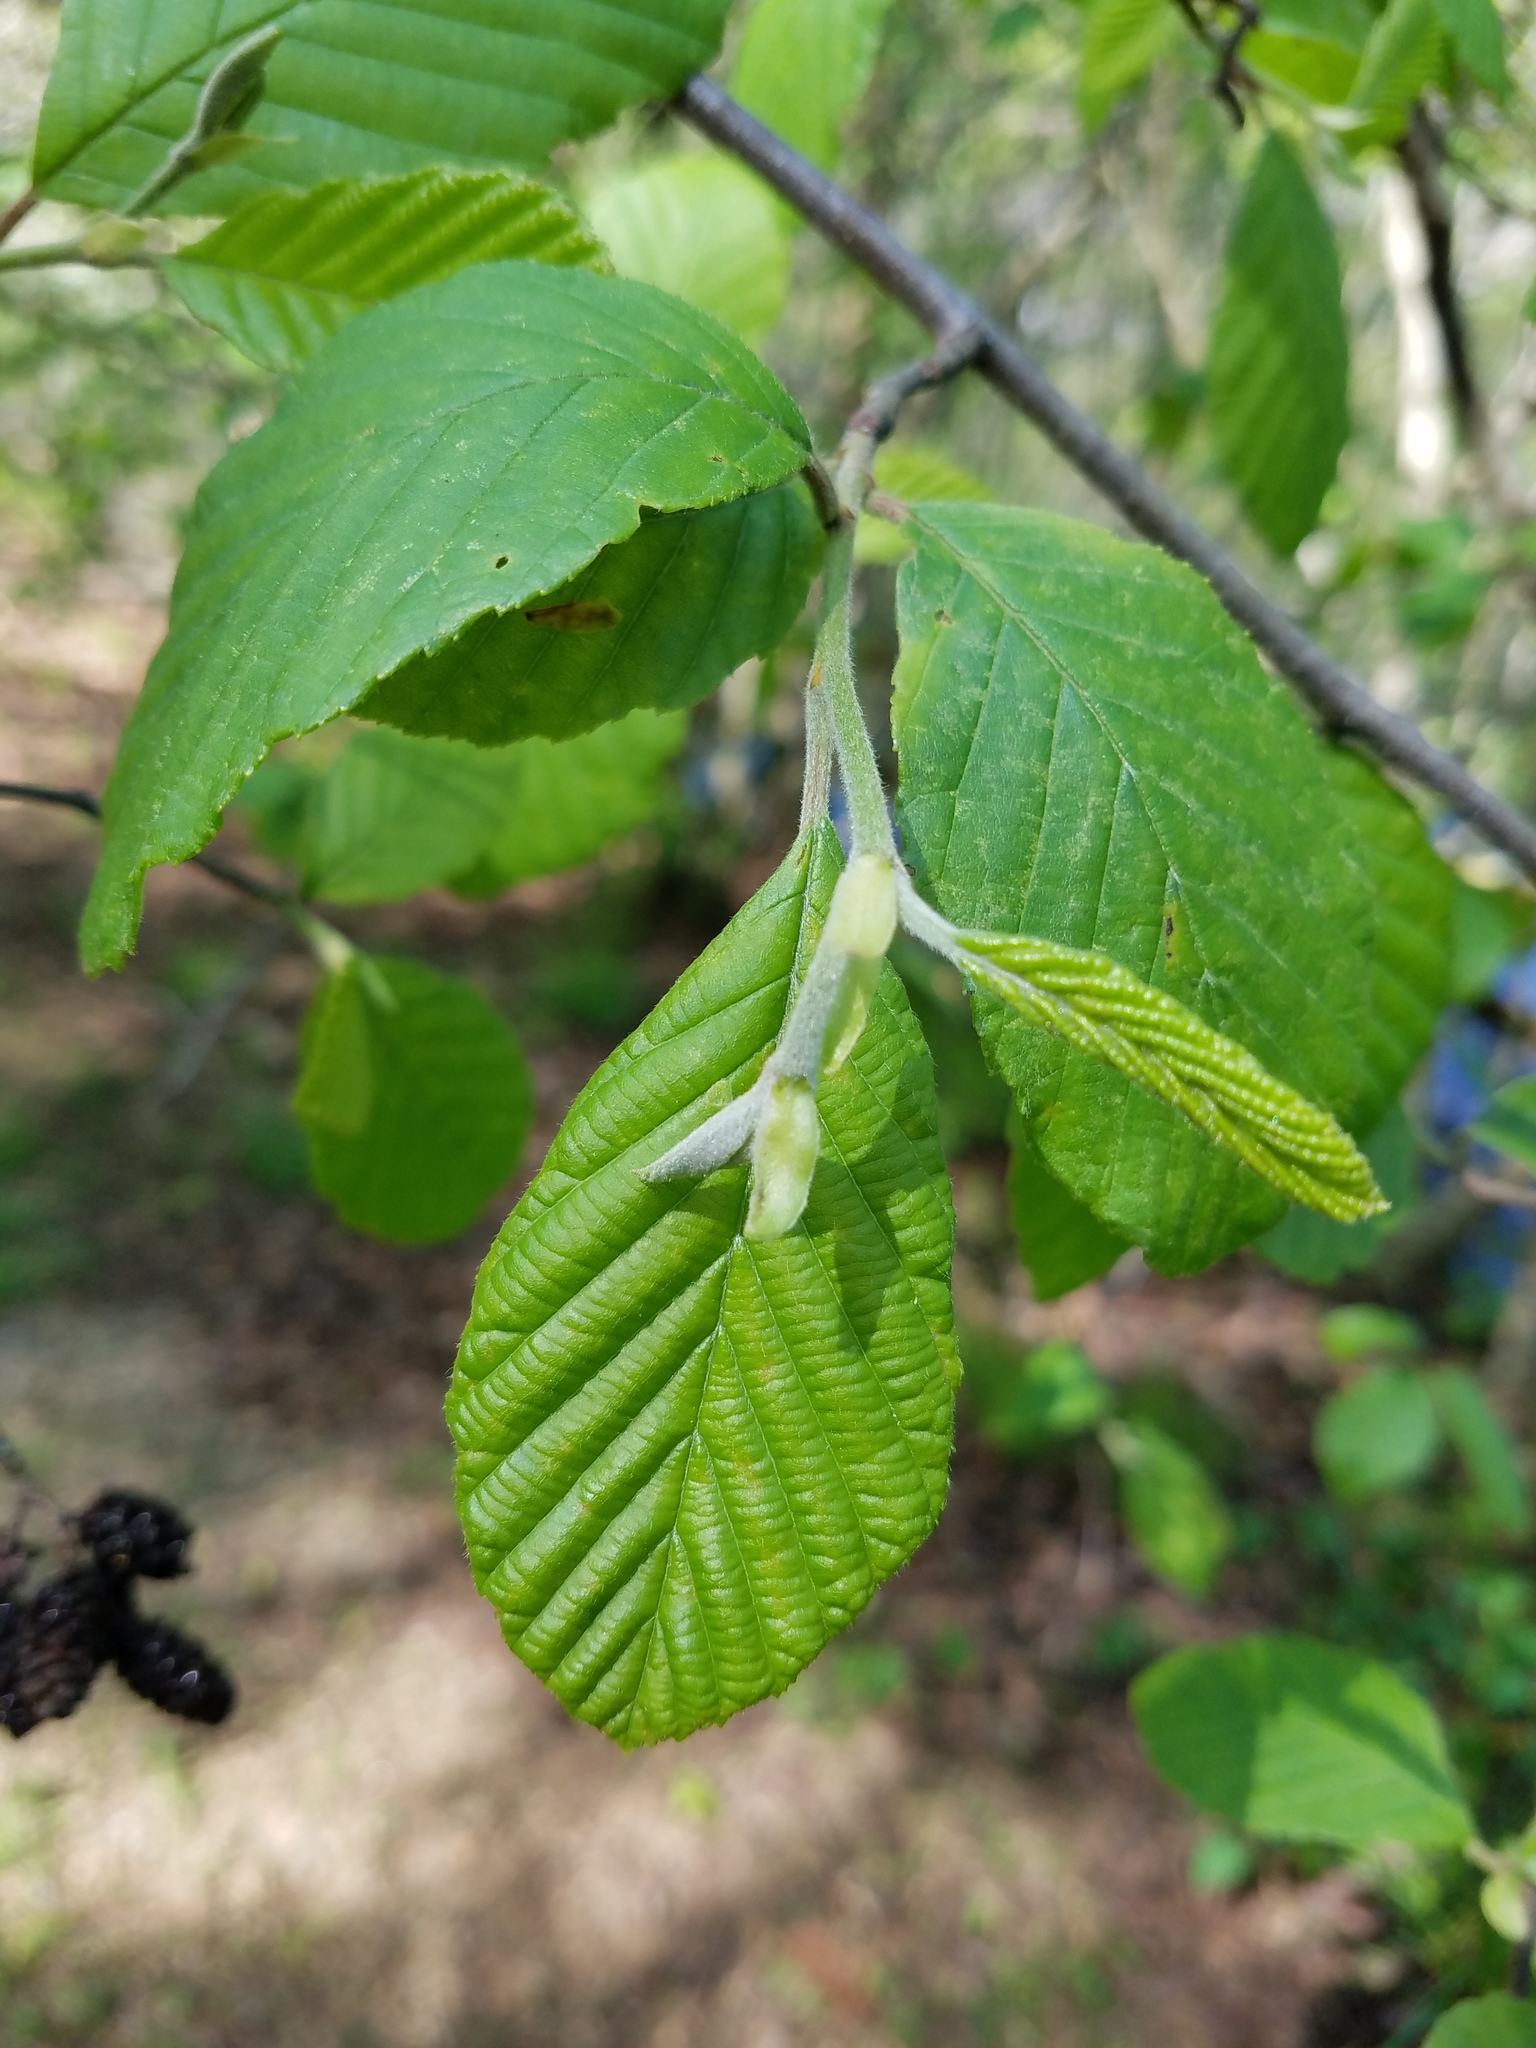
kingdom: Plantae
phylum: Tracheophyta
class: Magnoliopsida
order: Fagales
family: Betulaceae
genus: Alnus
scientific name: Alnus serrulata
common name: Hazel alder
